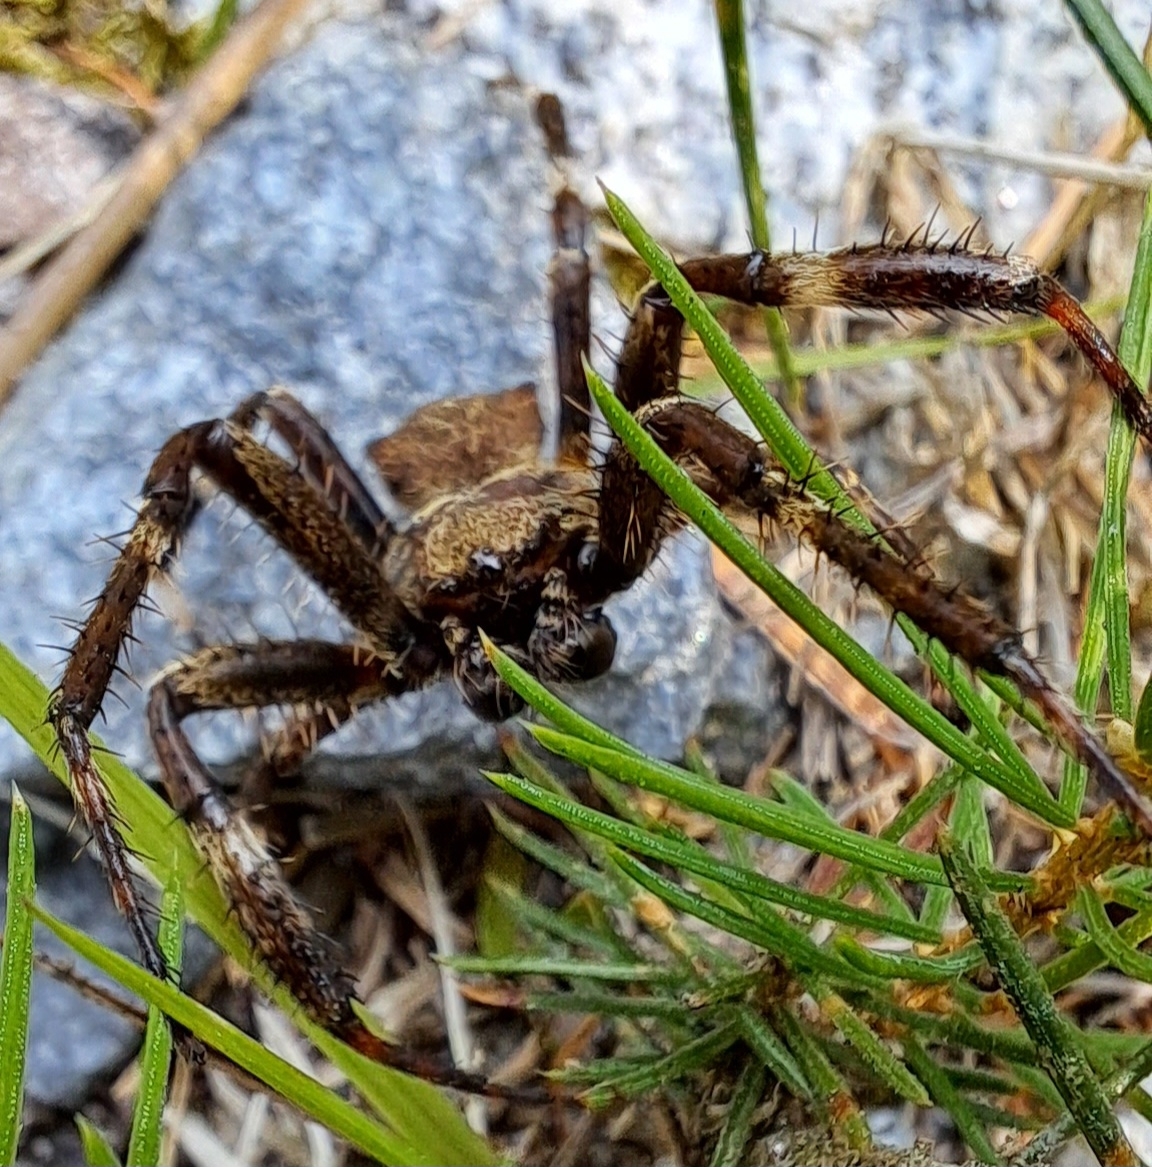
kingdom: Animalia
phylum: Arthropoda
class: Arachnida
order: Araneae
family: Araneidae
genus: Araneus
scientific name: Araneus angulatus
